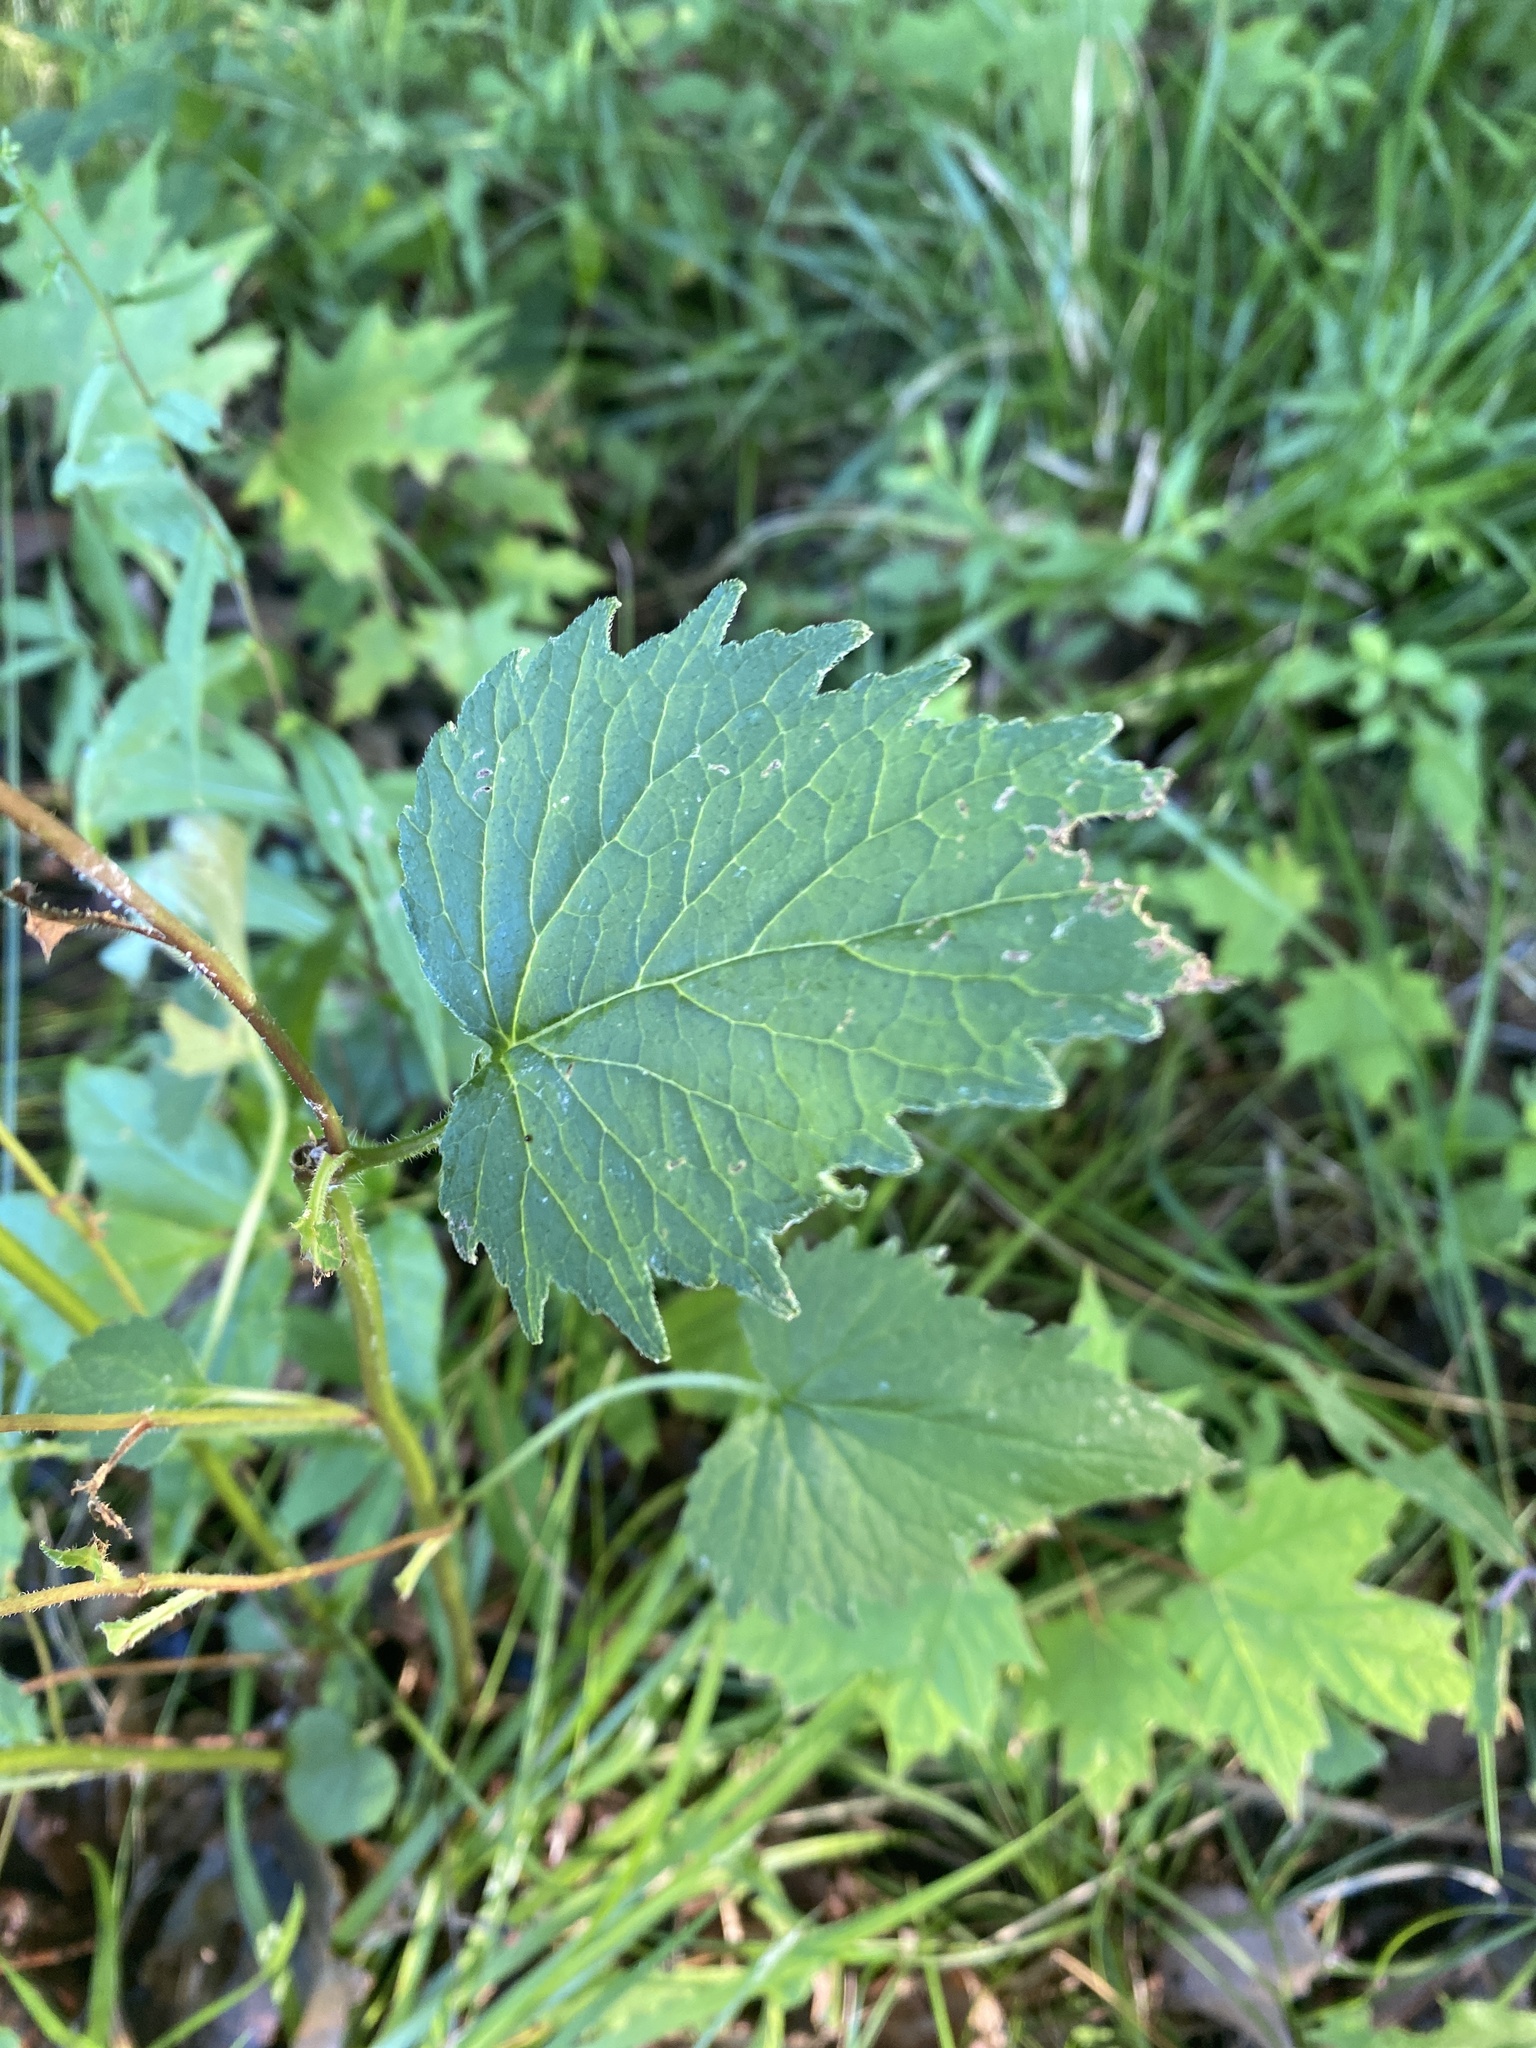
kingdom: Plantae
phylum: Tracheophyta
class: Magnoliopsida
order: Asterales
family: Campanulaceae
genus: Campanula
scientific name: Campanula trachelium
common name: Nettle-leaved bellflower
